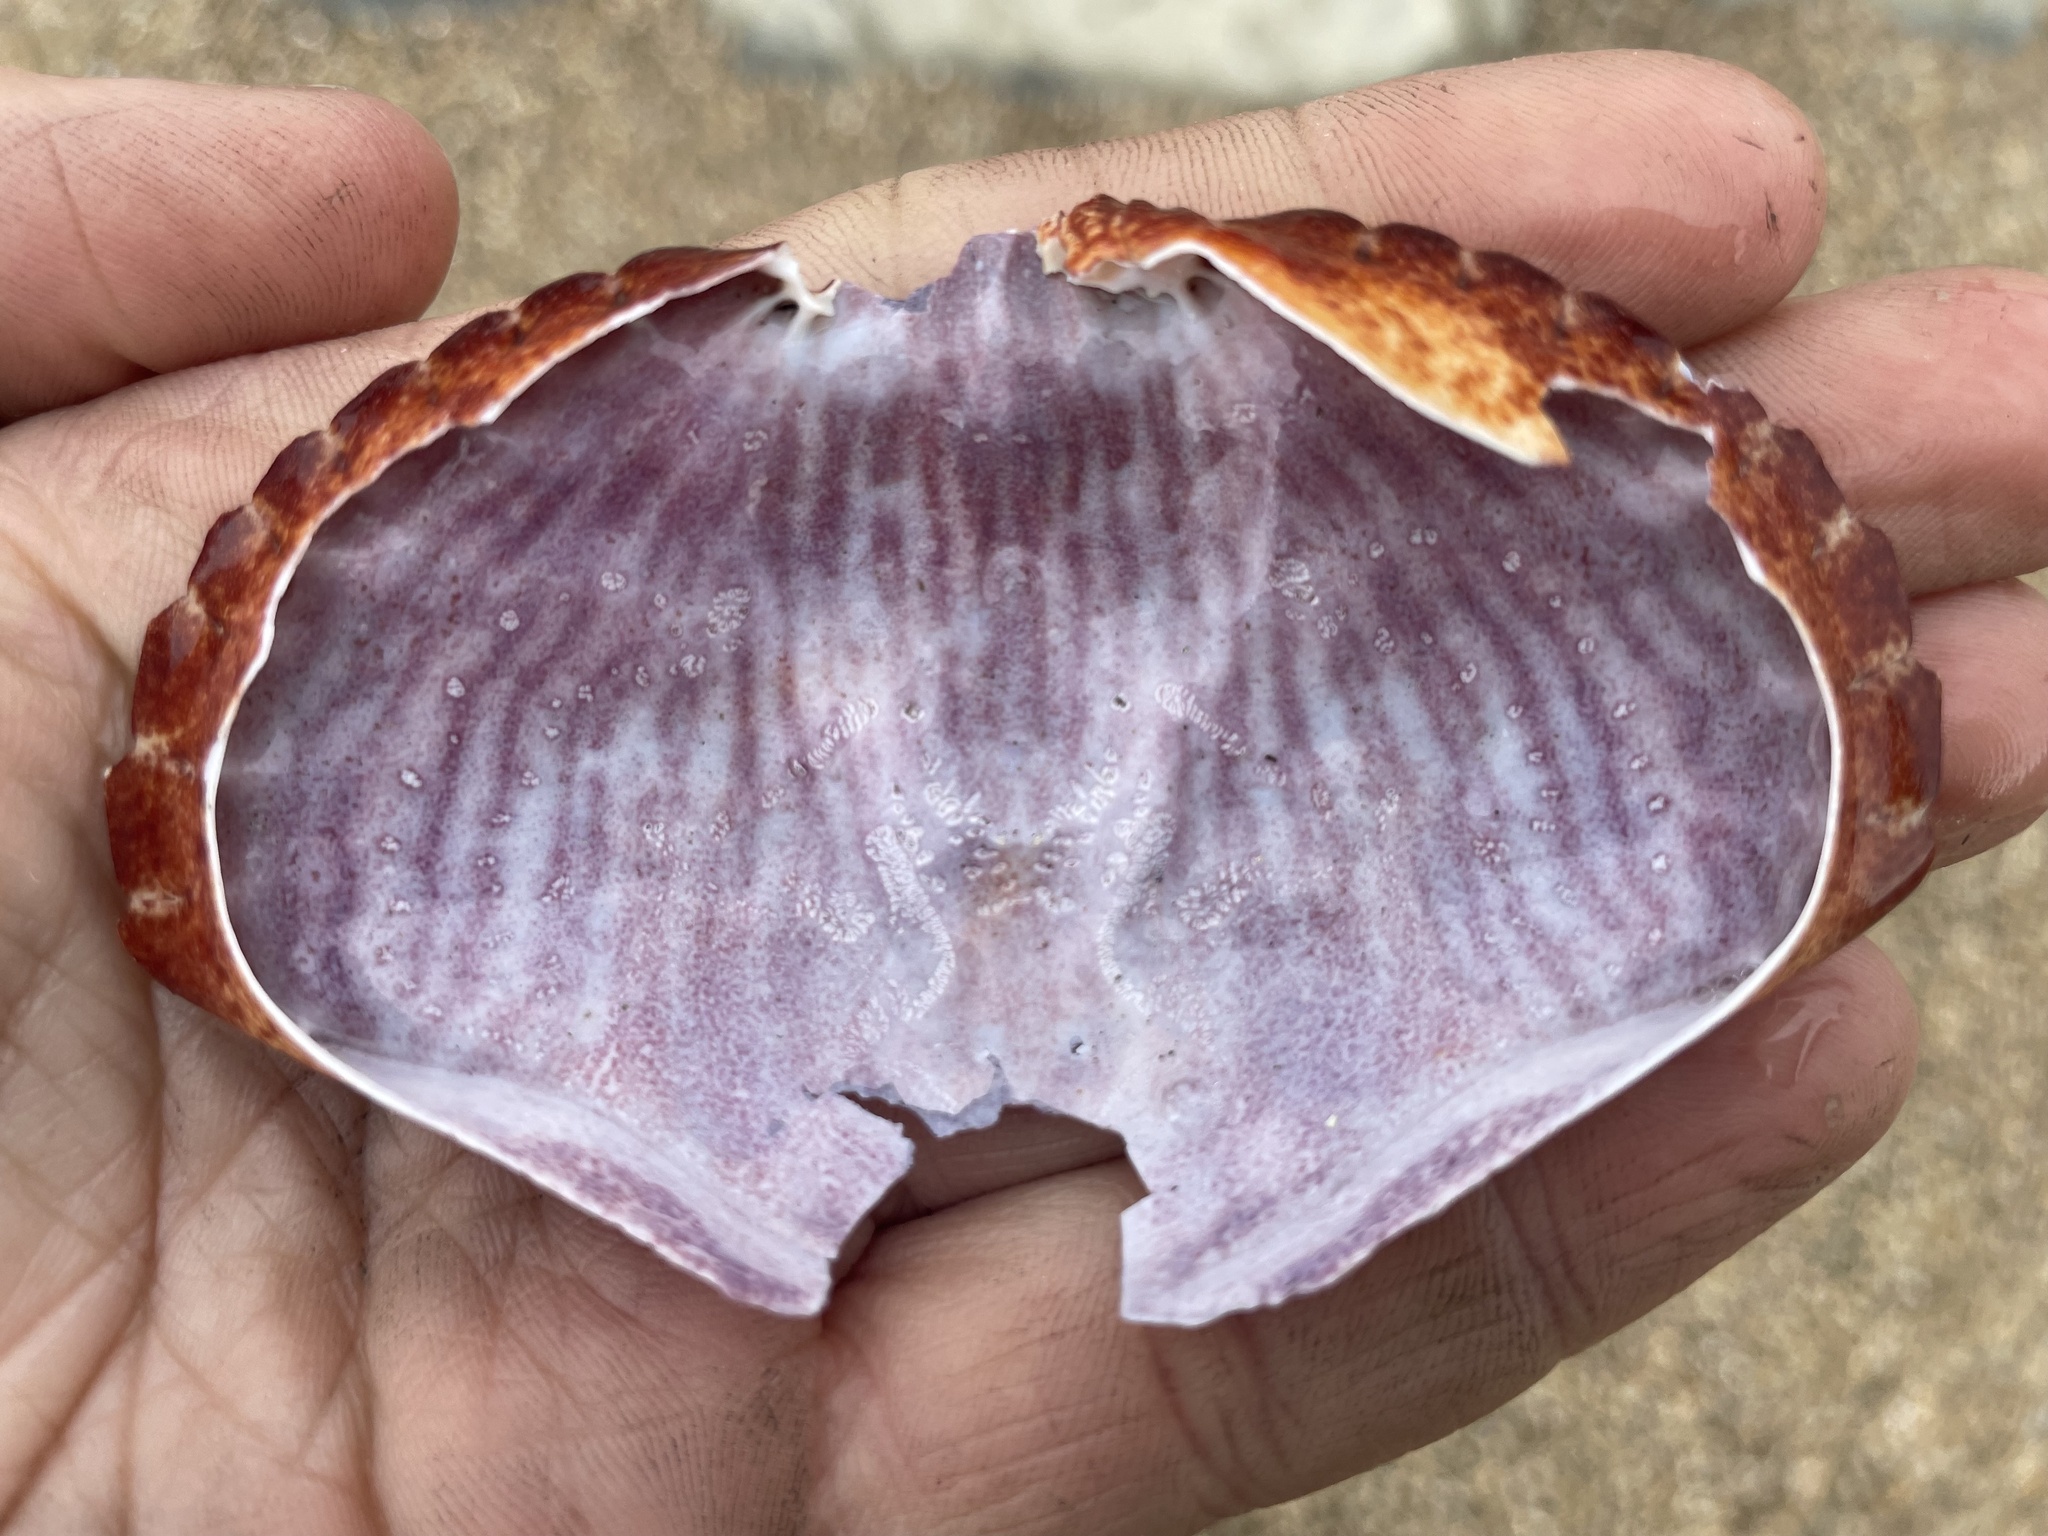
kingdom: Animalia
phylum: Arthropoda
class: Malacostraca
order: Decapoda
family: Cancridae
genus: Cancer
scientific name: Cancer productus
